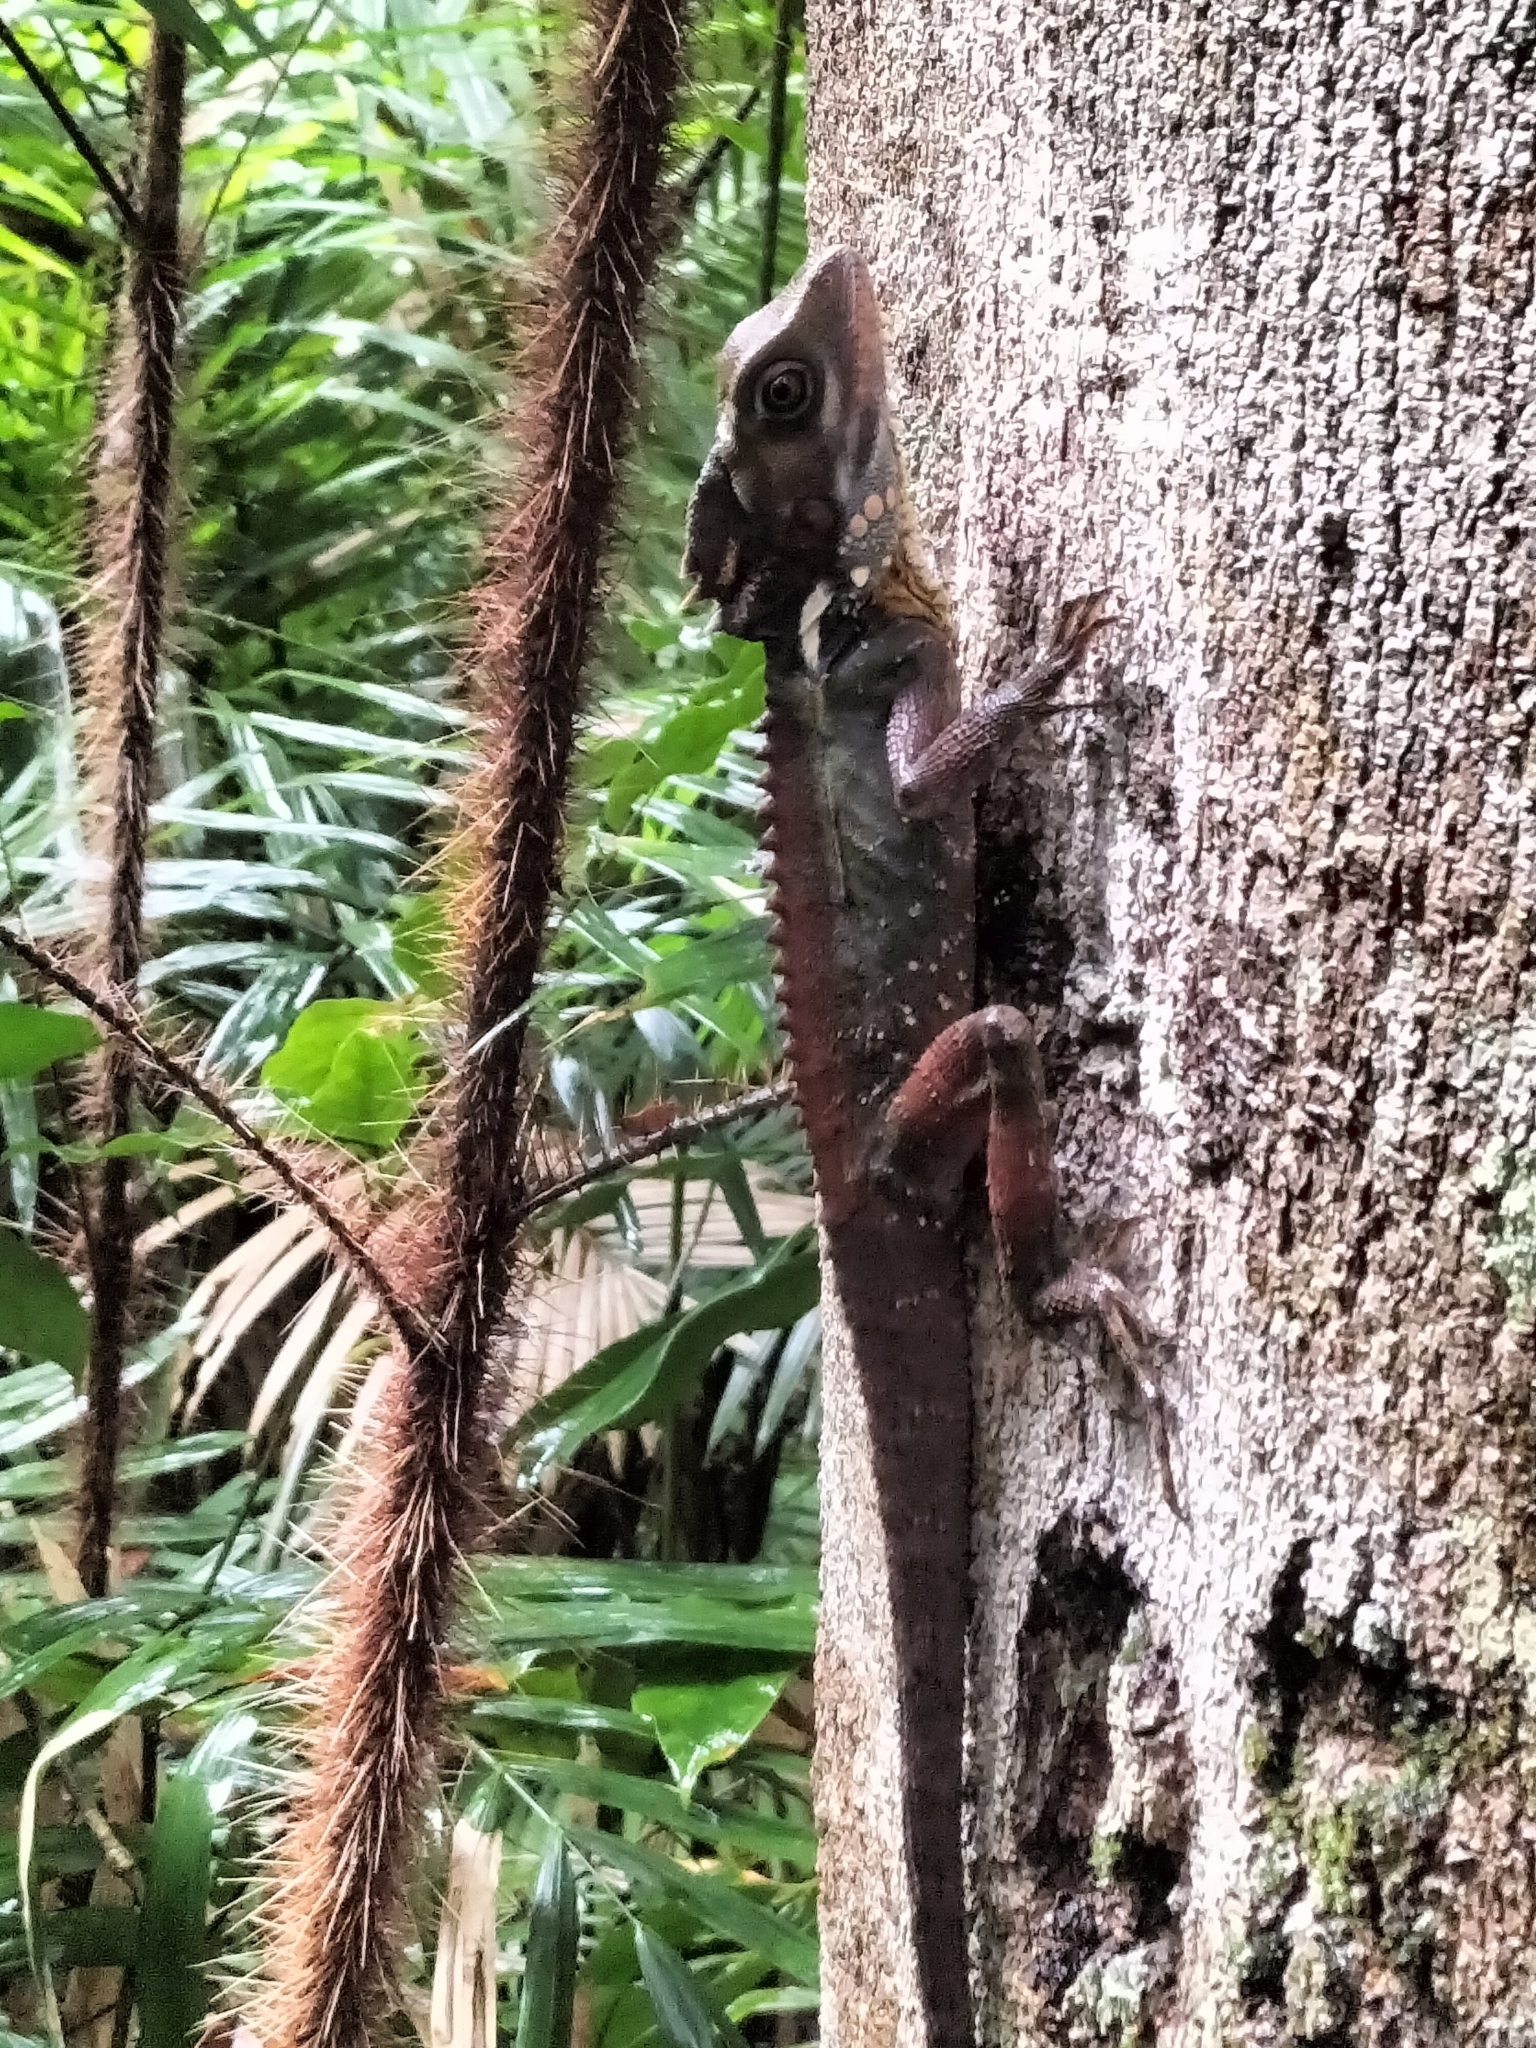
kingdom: Animalia
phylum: Chordata
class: Squamata
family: Agamidae
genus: Lophosaurus
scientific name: Lophosaurus boydii
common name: Boyd's forest dragon
